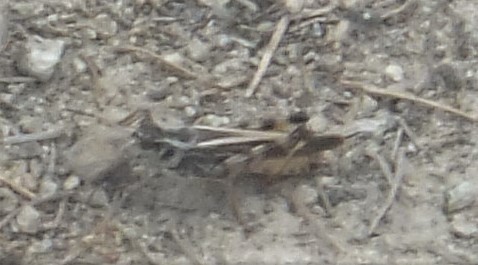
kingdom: Animalia
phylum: Arthropoda
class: Insecta
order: Orthoptera
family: Acrididae
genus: Camnula
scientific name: Camnula pellucida
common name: Clear-winged grasshopper
